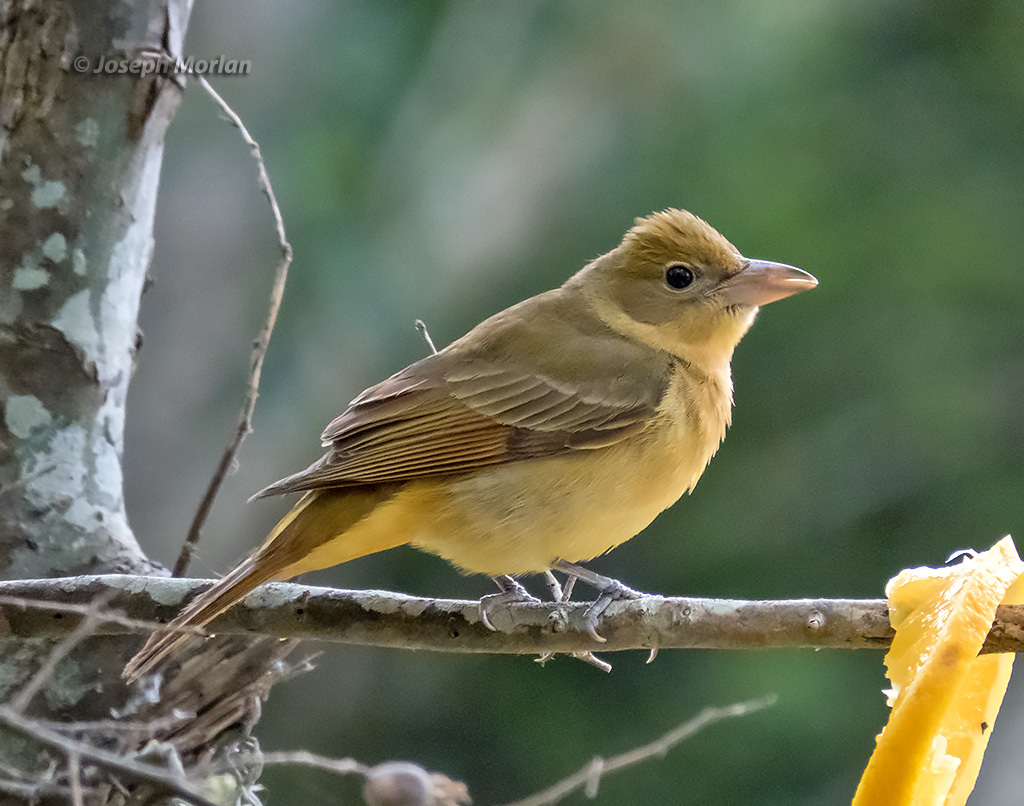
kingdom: Animalia
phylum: Chordata
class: Aves
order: Passeriformes
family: Cardinalidae
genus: Piranga
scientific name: Piranga rubra
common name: Summer tanager
